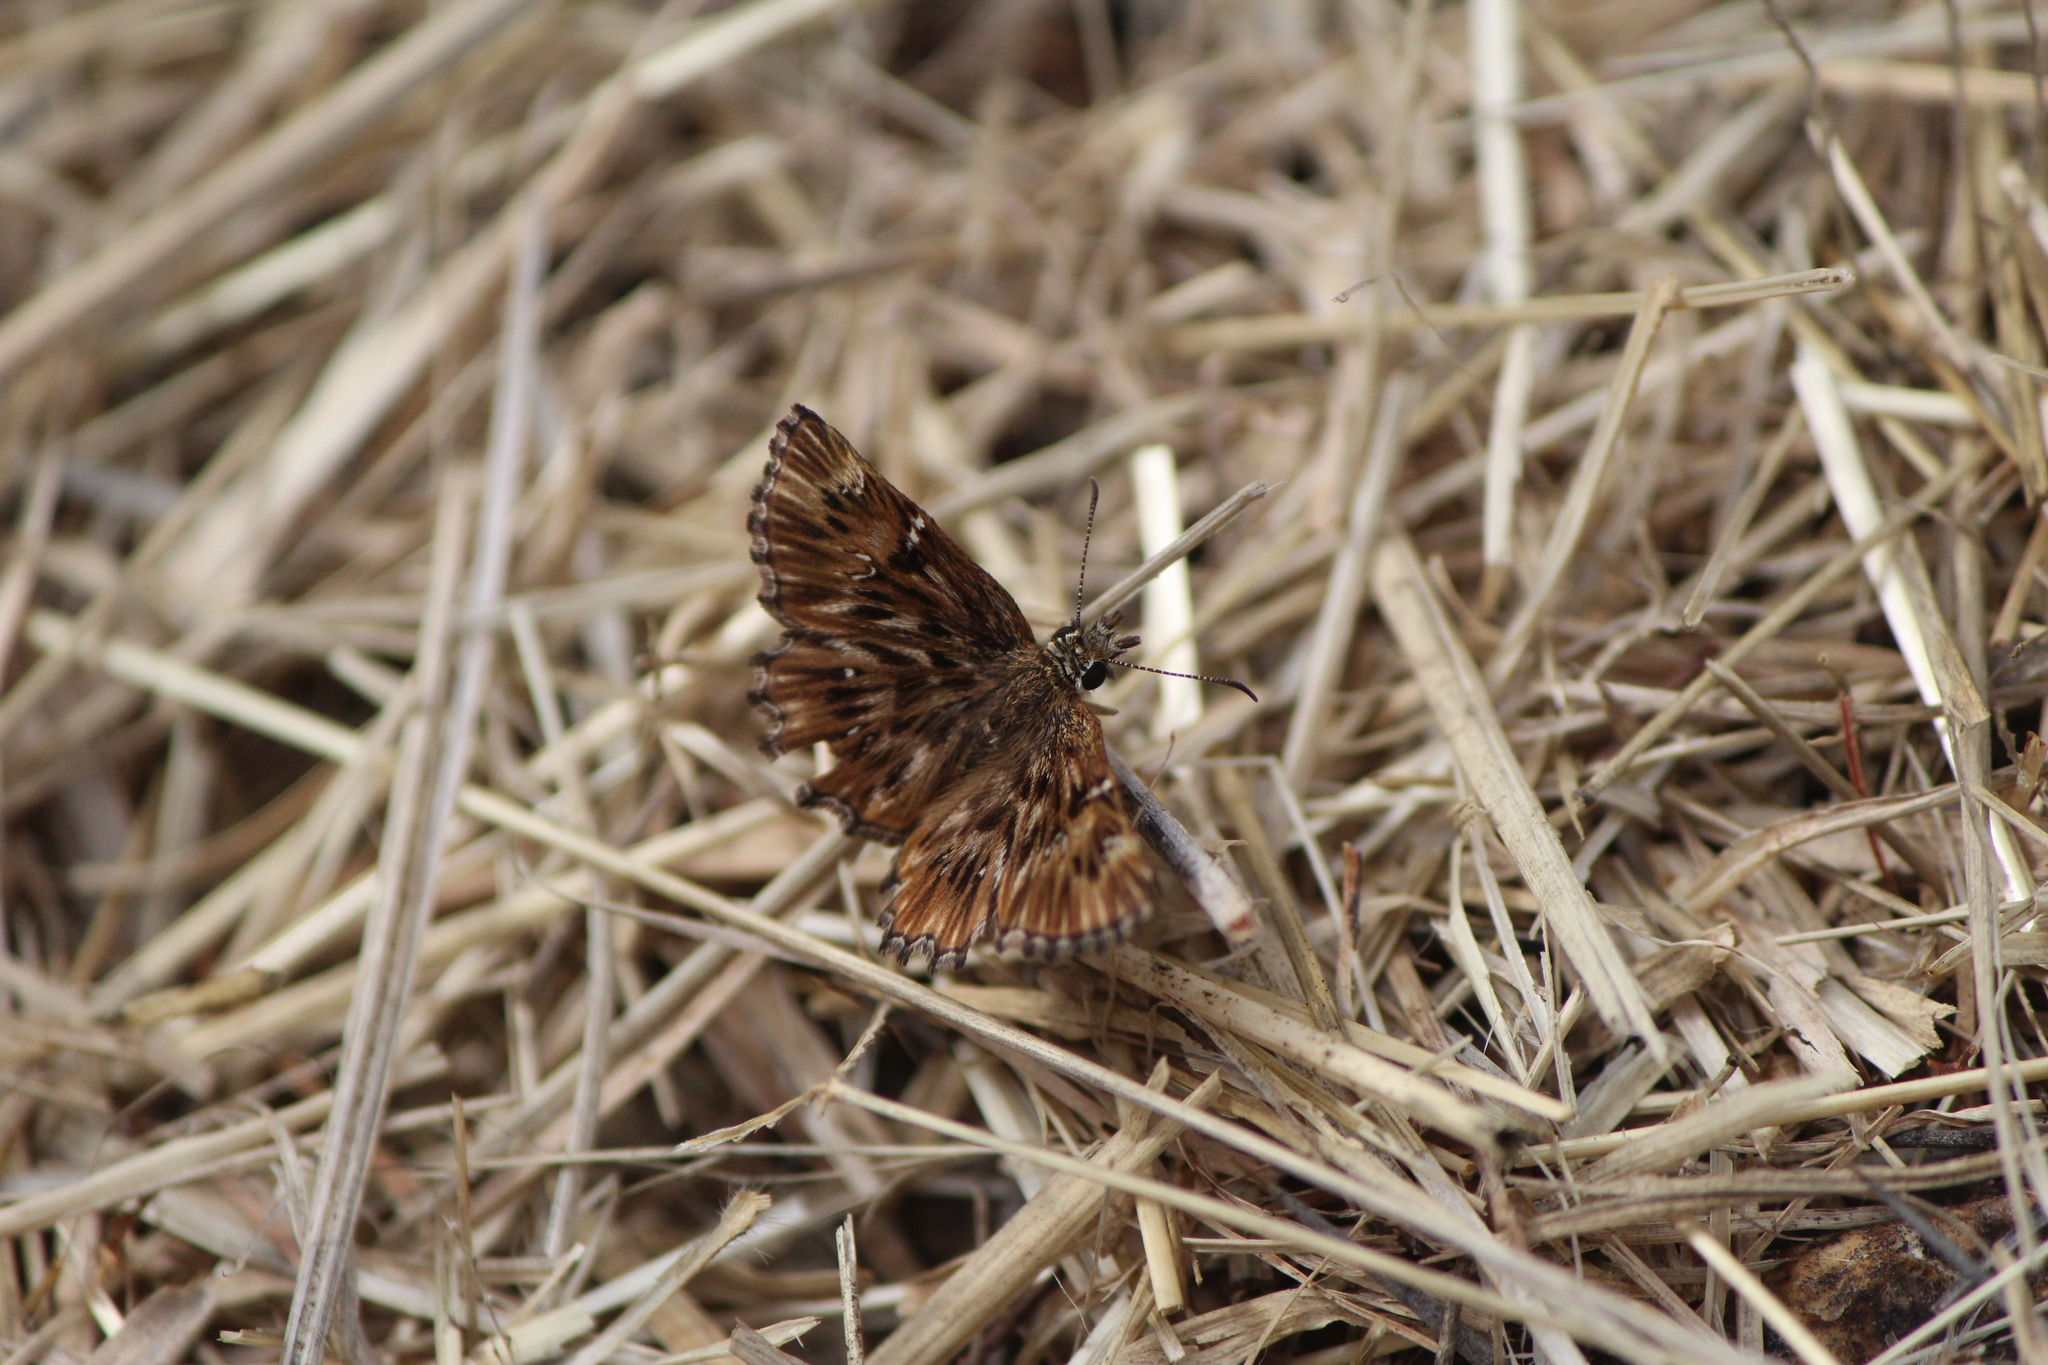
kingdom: Animalia
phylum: Arthropoda
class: Insecta
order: Lepidoptera
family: Hesperiidae
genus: Celotes
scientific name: Celotes spurcus
